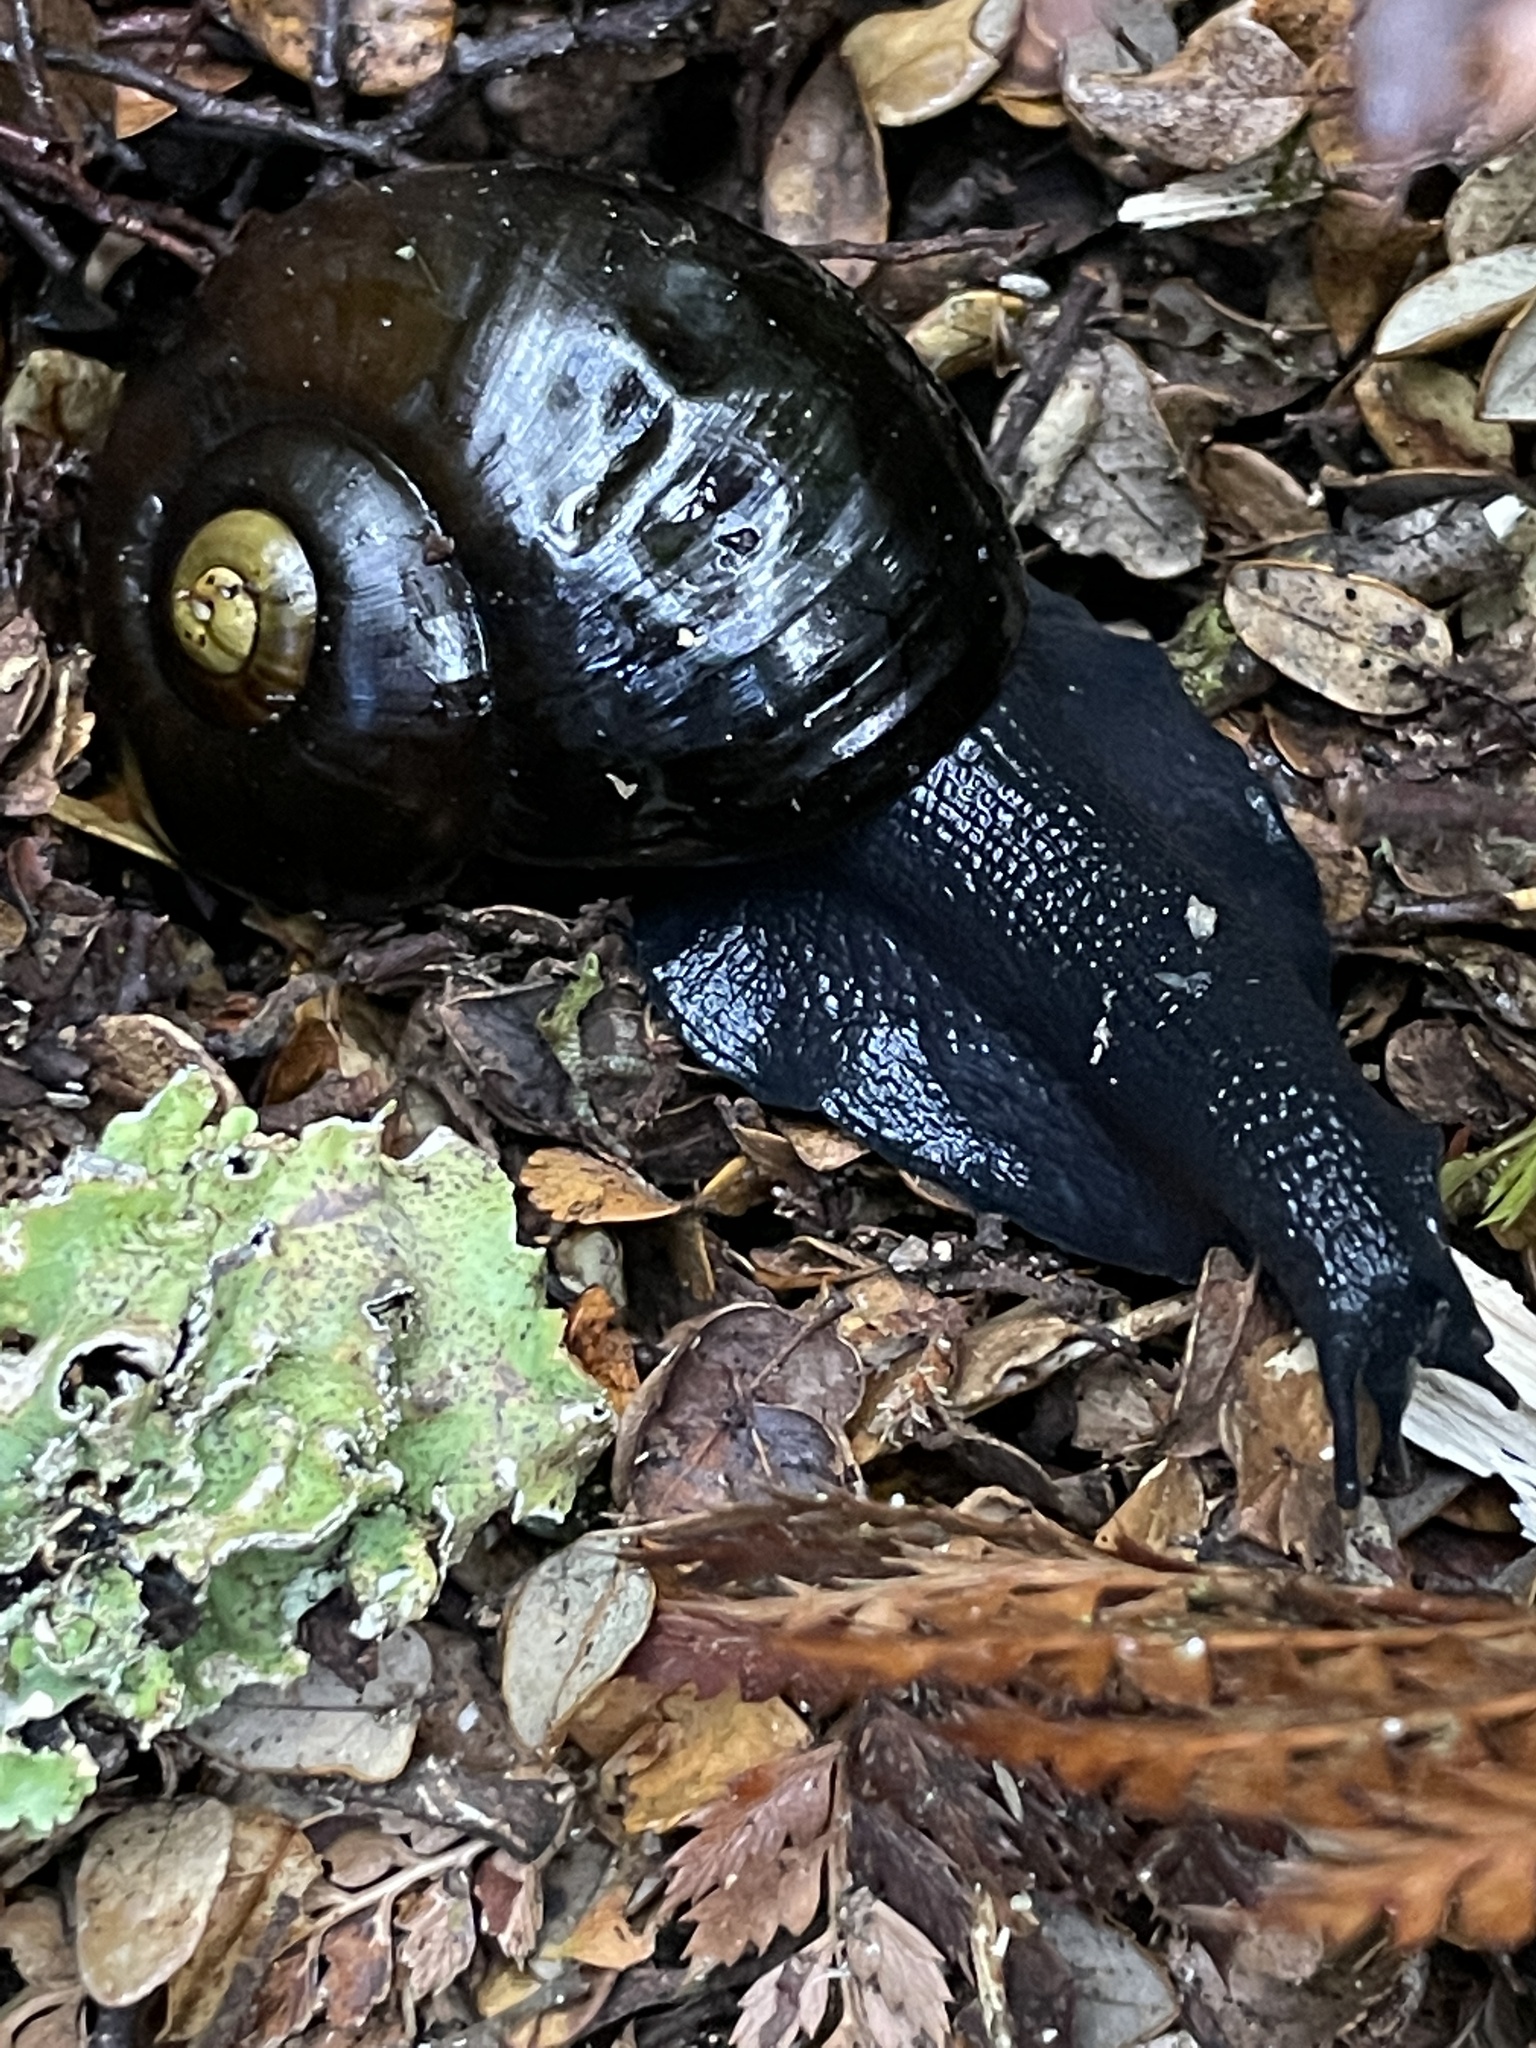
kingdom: Animalia
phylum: Mollusca
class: Gastropoda
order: Stylommatophora
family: Rhytididae
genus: Powelliphanta
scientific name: Powelliphanta spedeni
